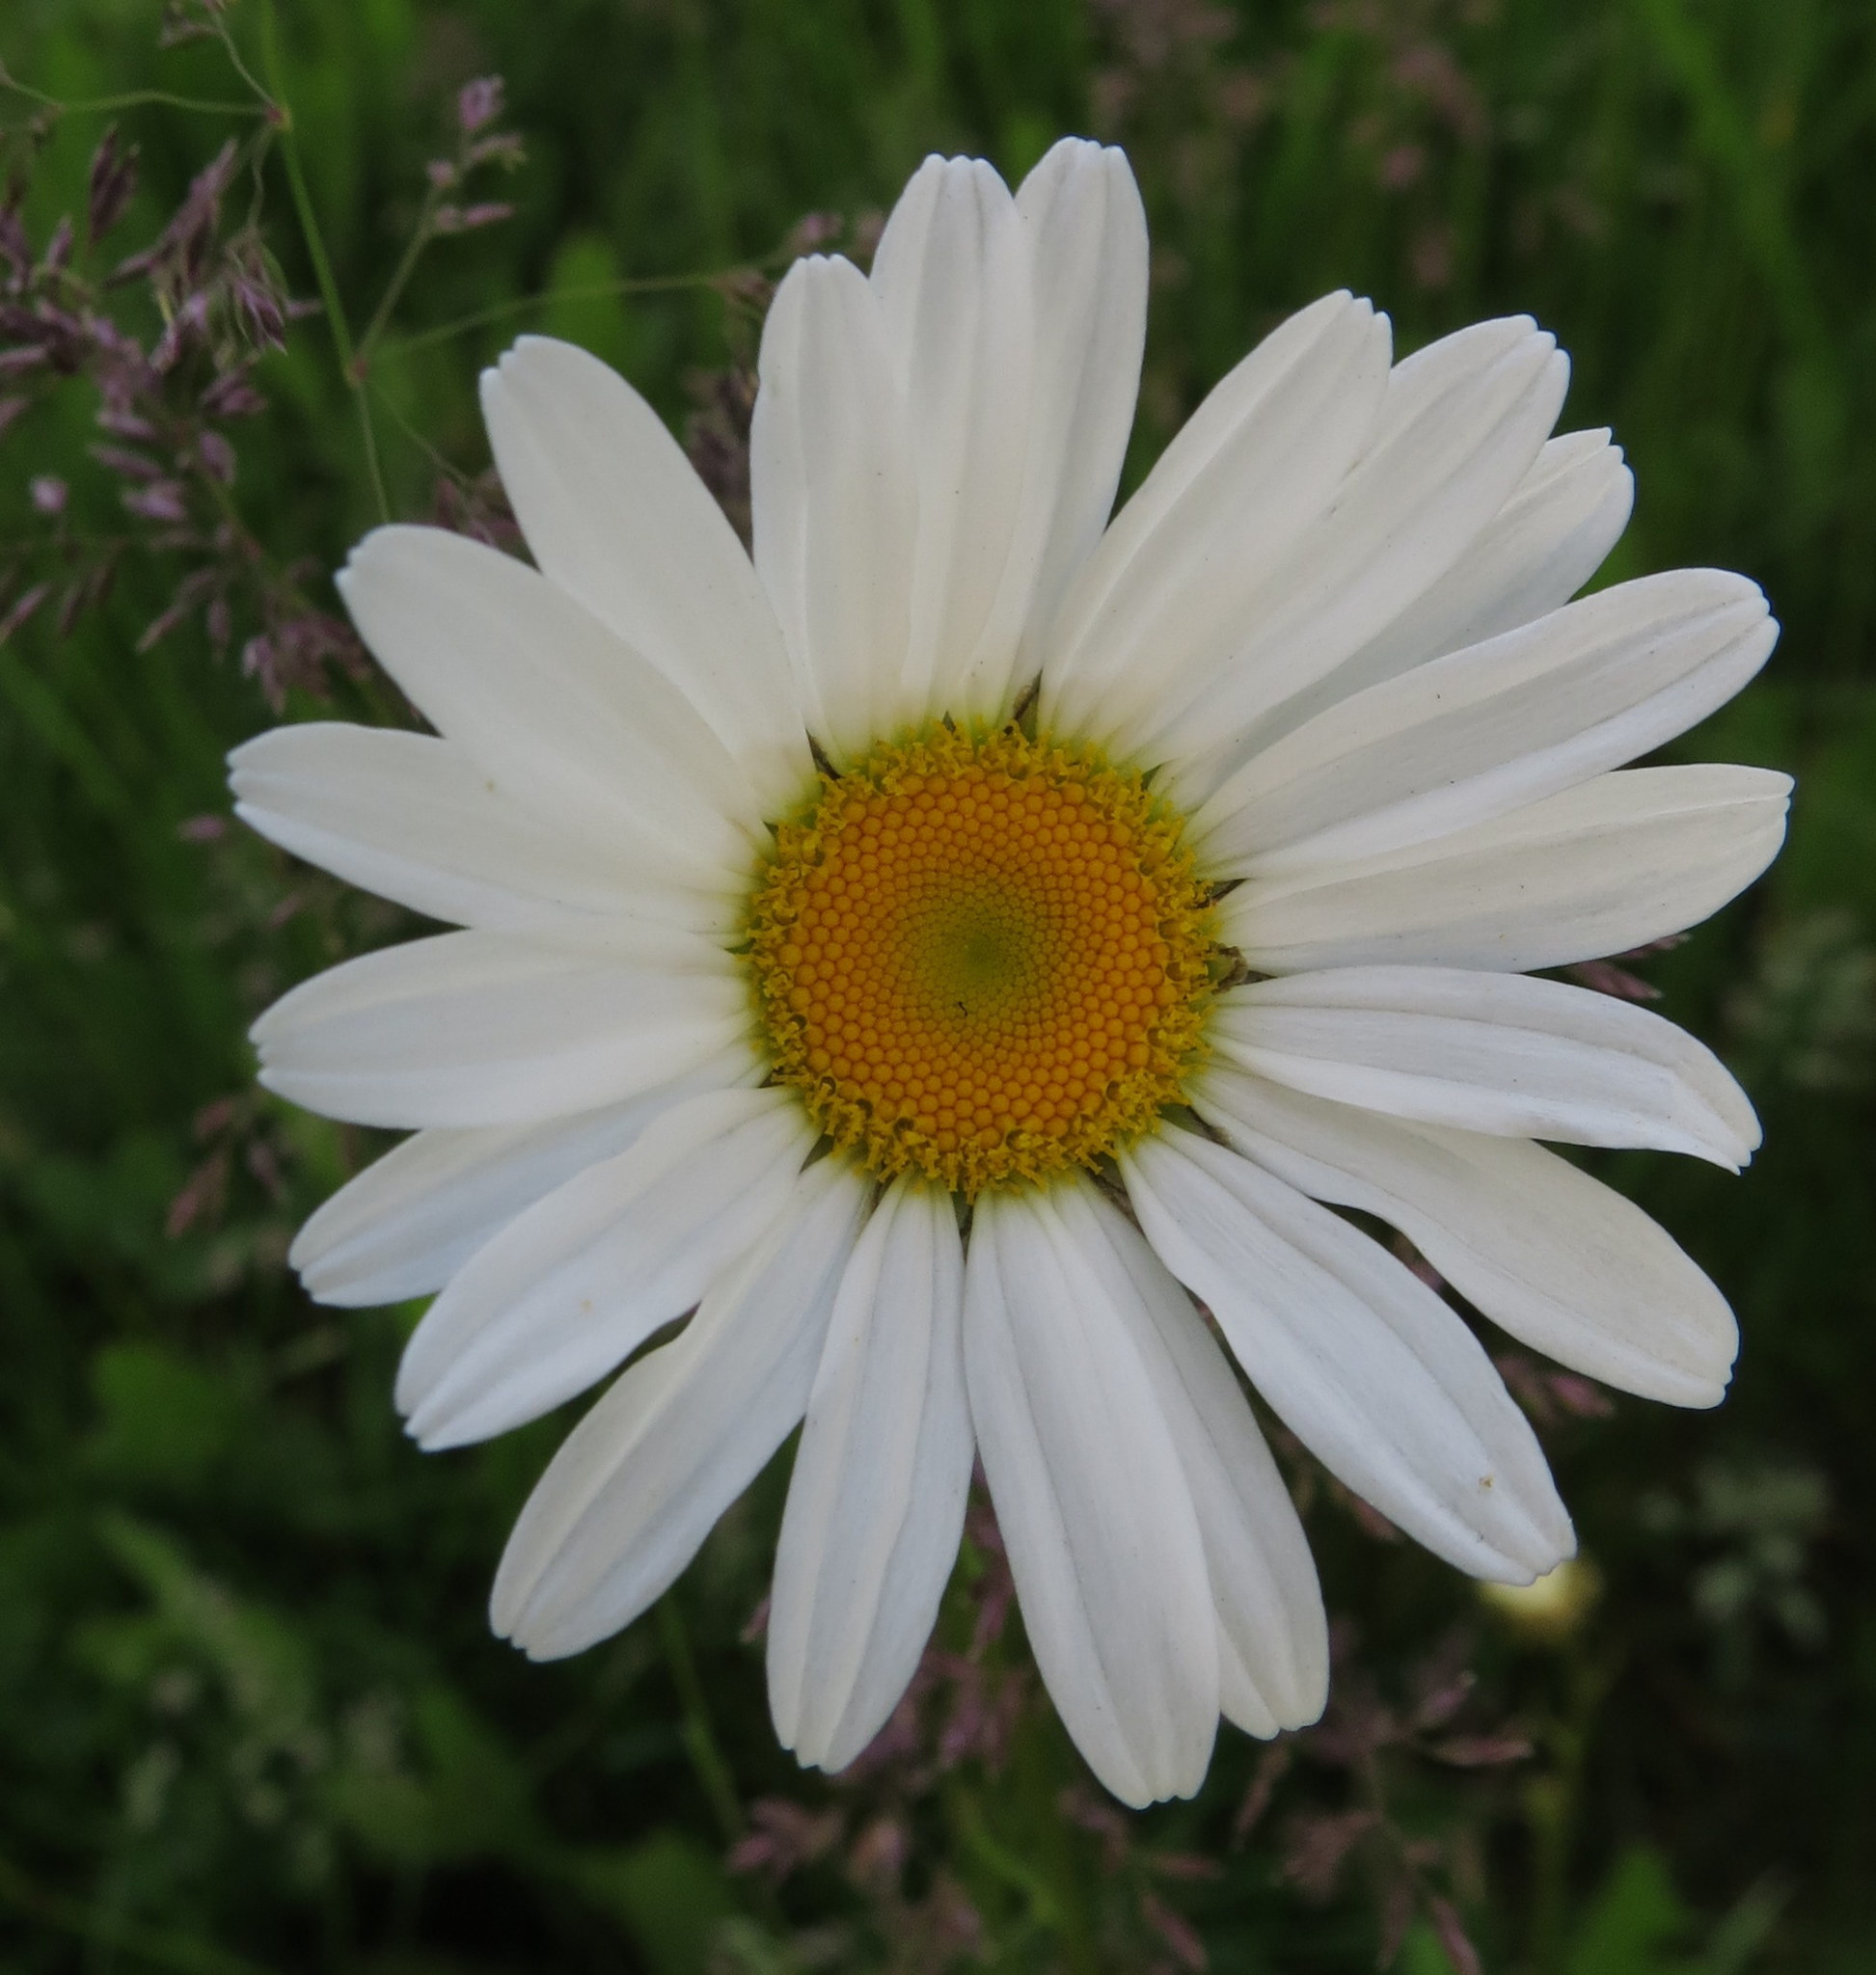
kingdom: Plantae
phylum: Tracheophyta
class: Magnoliopsida
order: Asterales
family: Asteraceae
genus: Leucanthemum
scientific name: Leucanthemum vulgare
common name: Oxeye daisy
